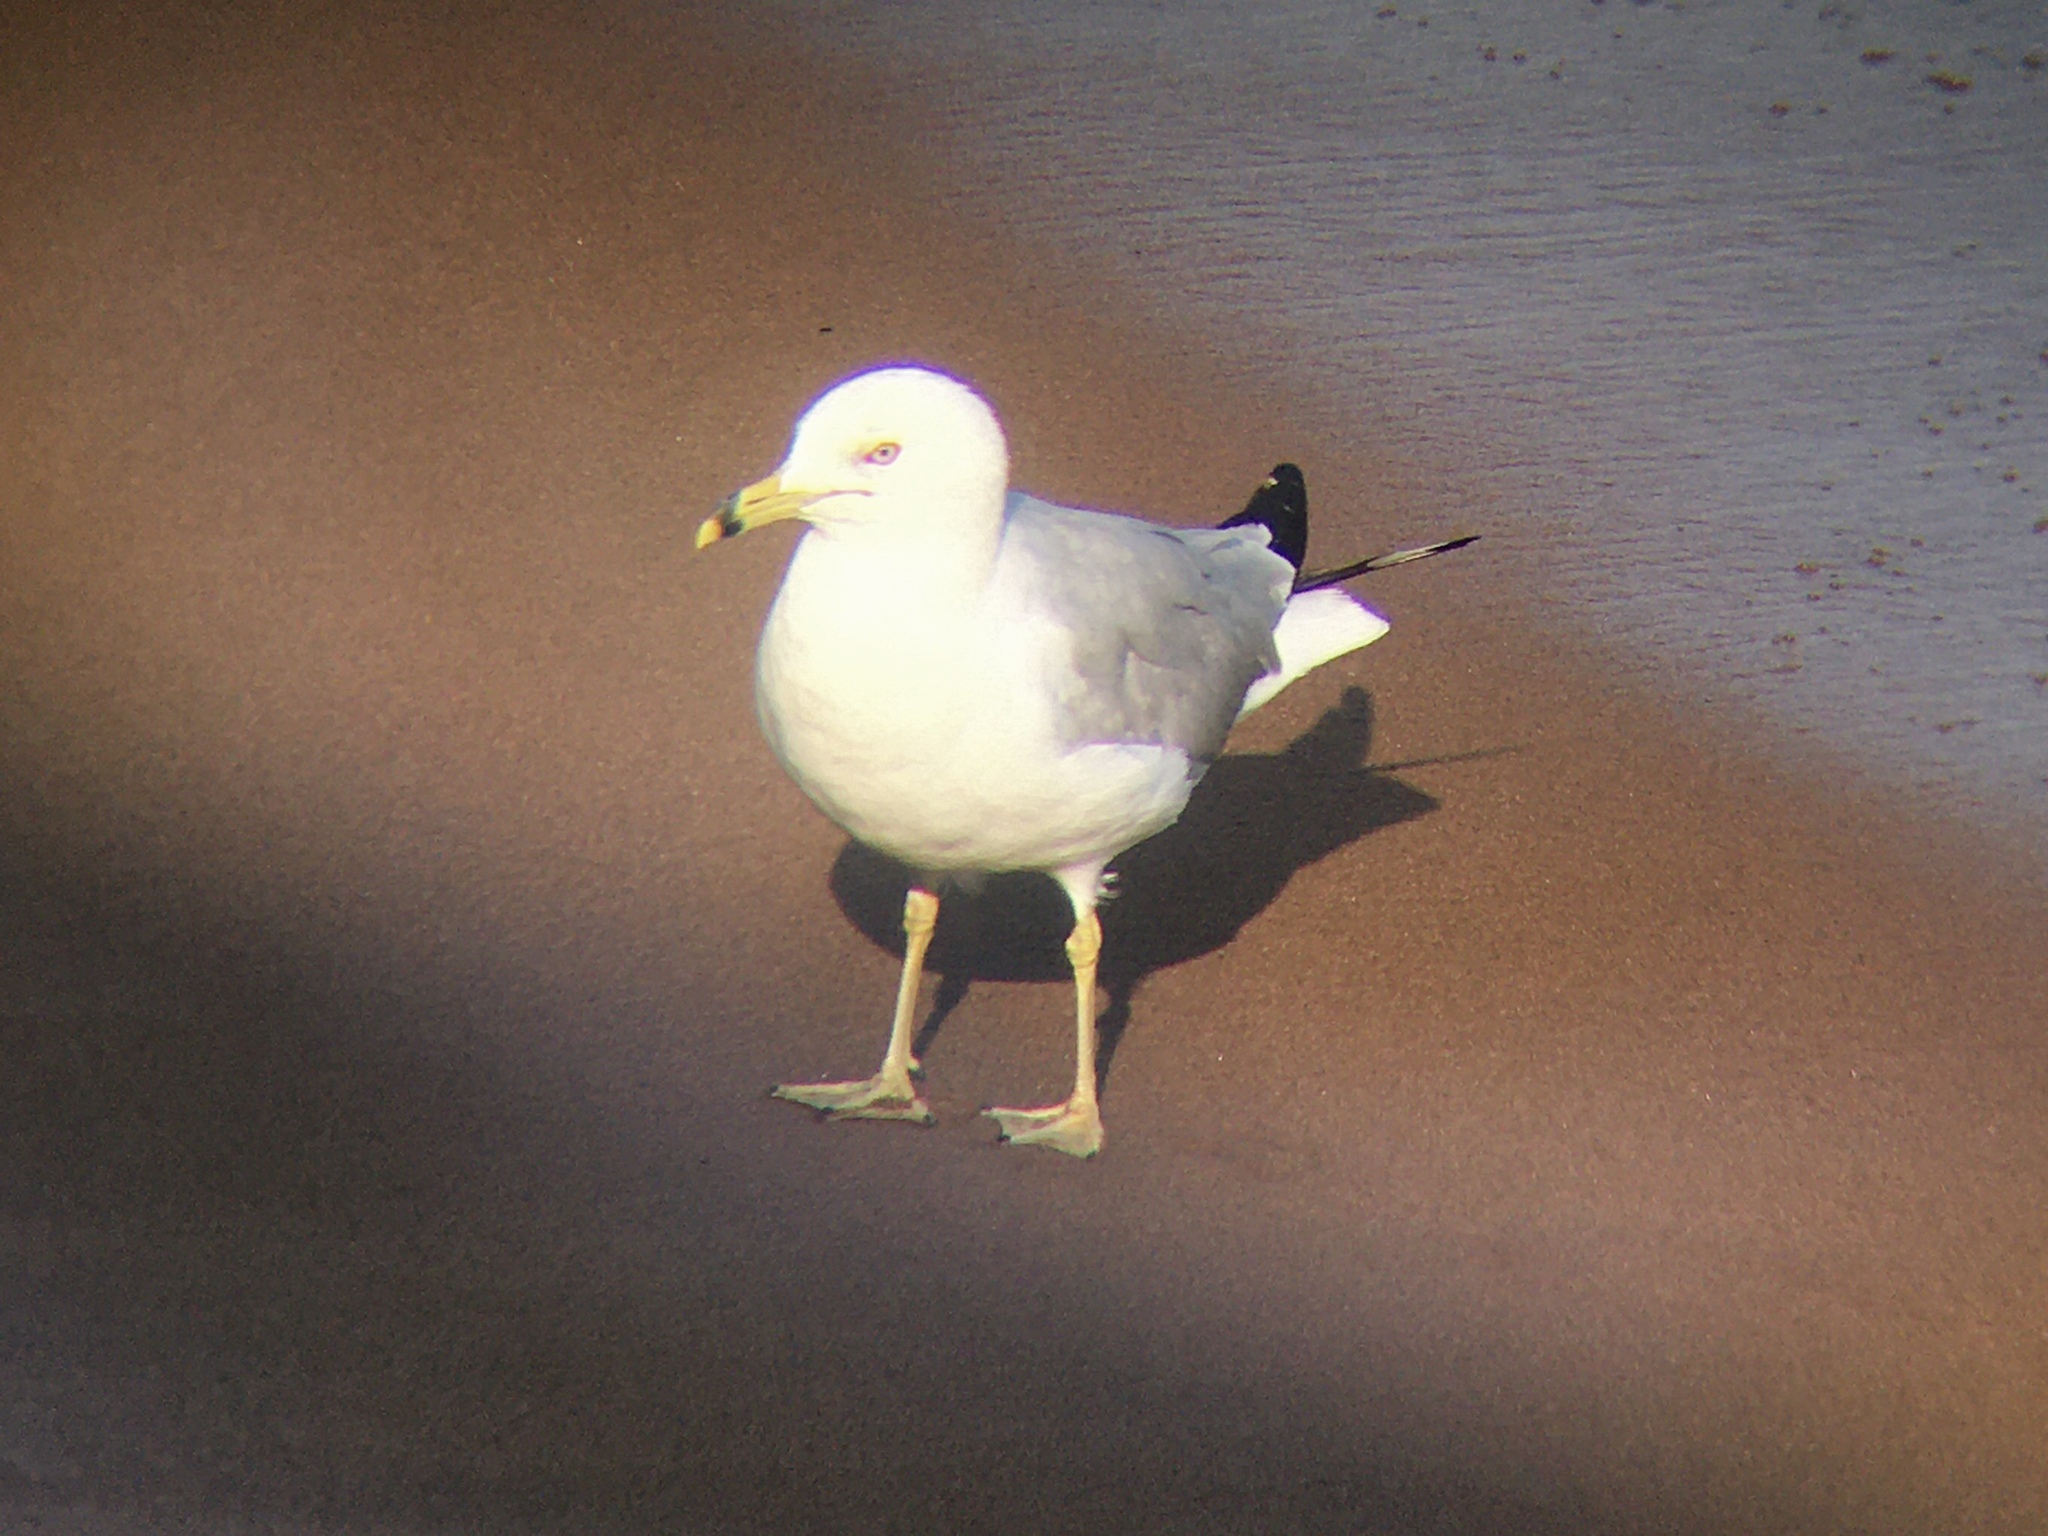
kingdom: Animalia
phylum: Chordata
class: Aves
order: Charadriiformes
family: Laridae
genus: Larus
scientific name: Larus delawarensis
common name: Ring-billed gull
